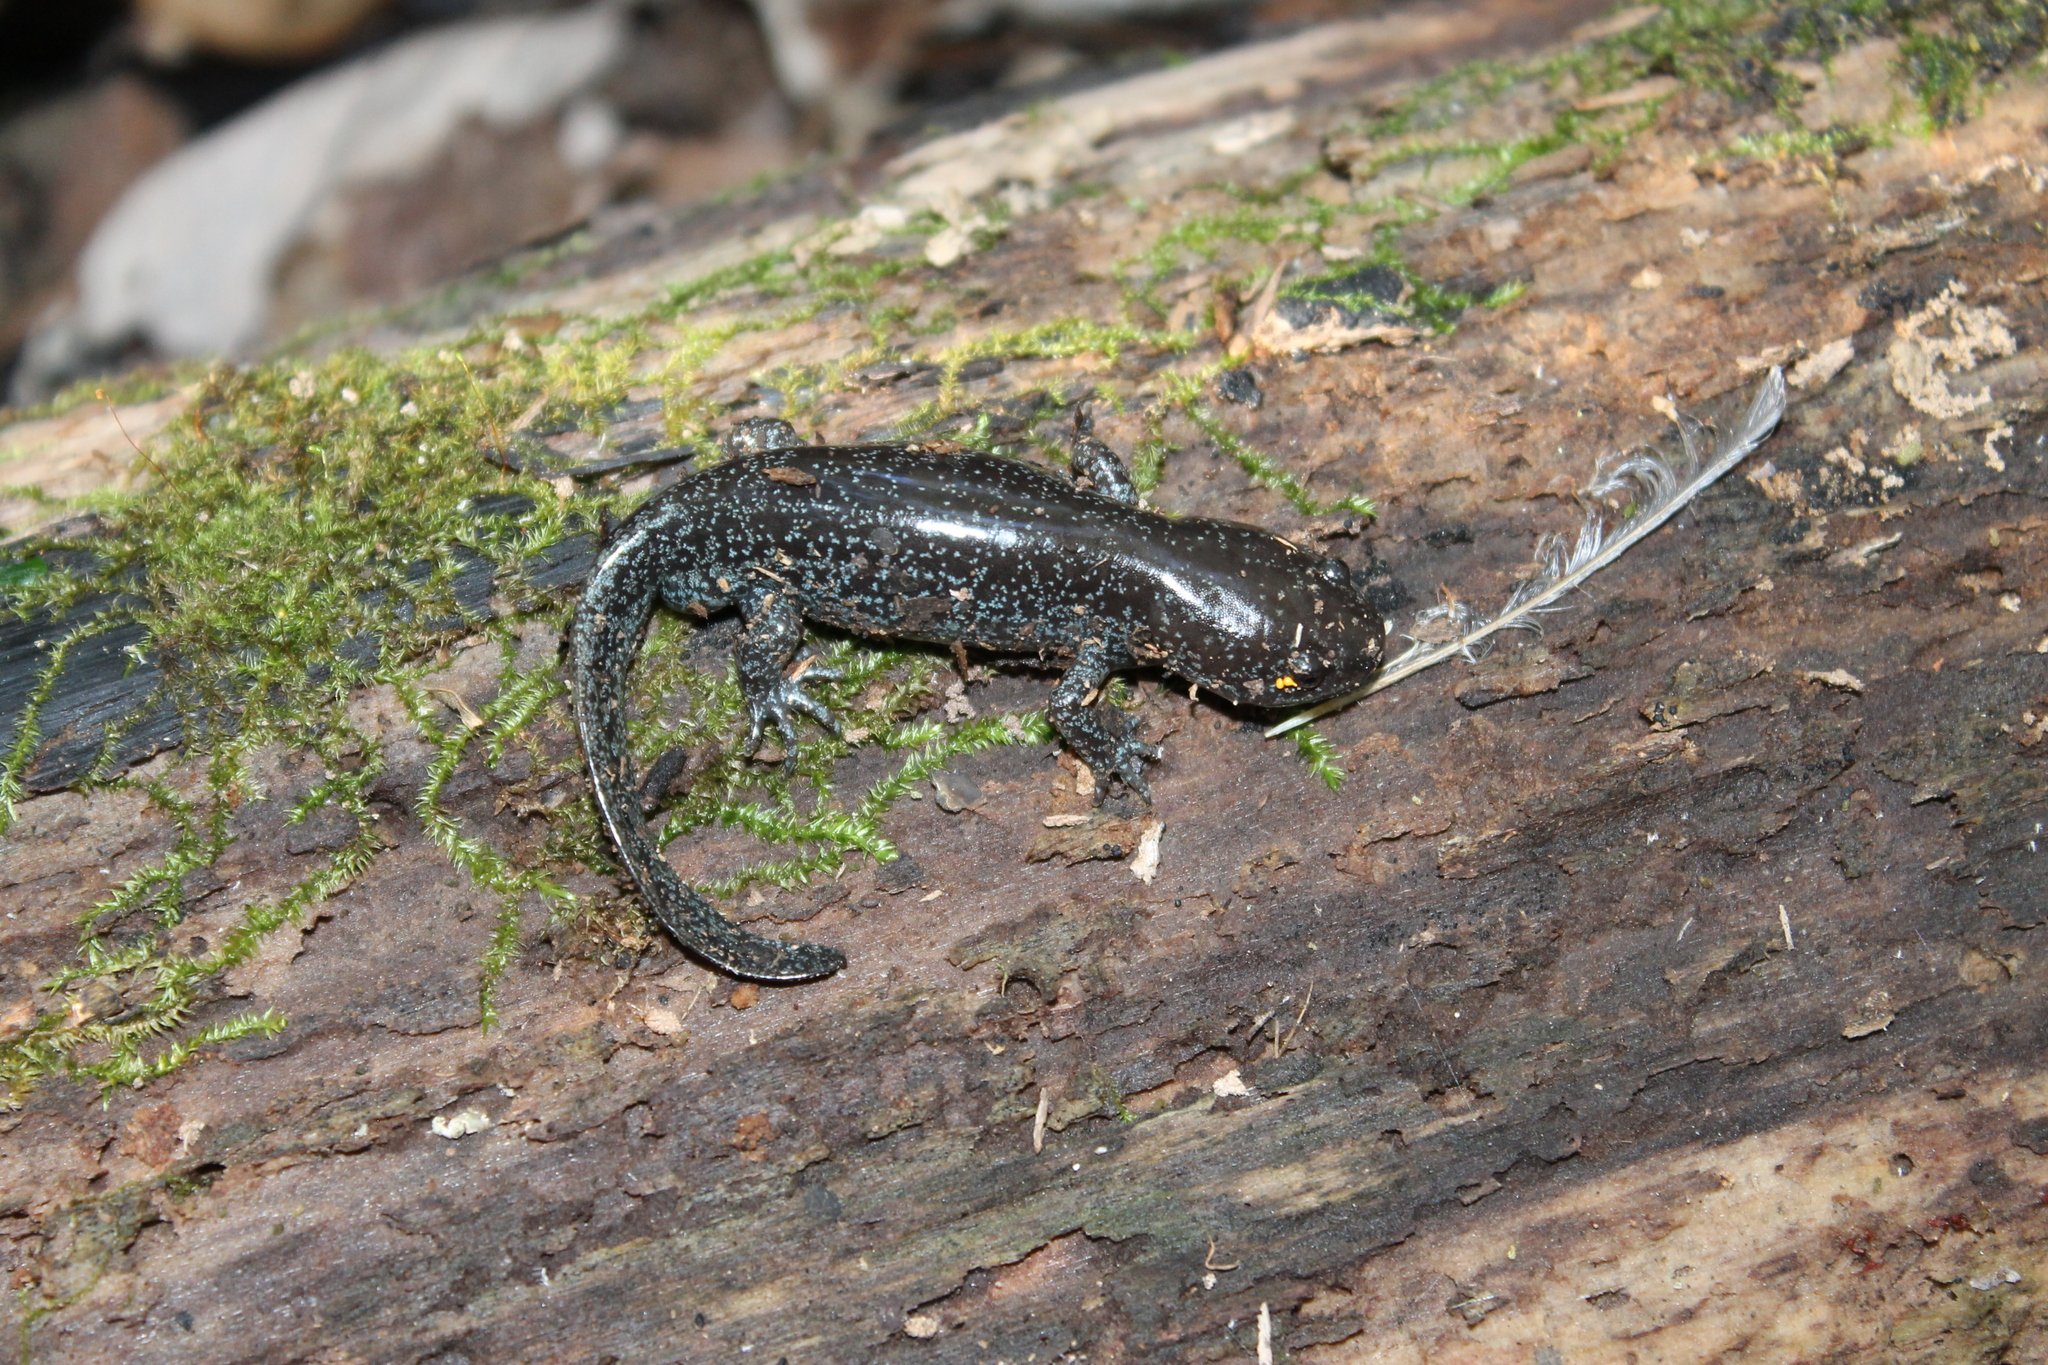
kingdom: Animalia
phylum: Chordata
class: Amphibia
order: Caudata
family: Ambystomatidae
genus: Ambystoma
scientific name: Ambystoma talpoideum
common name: Mole salamander
